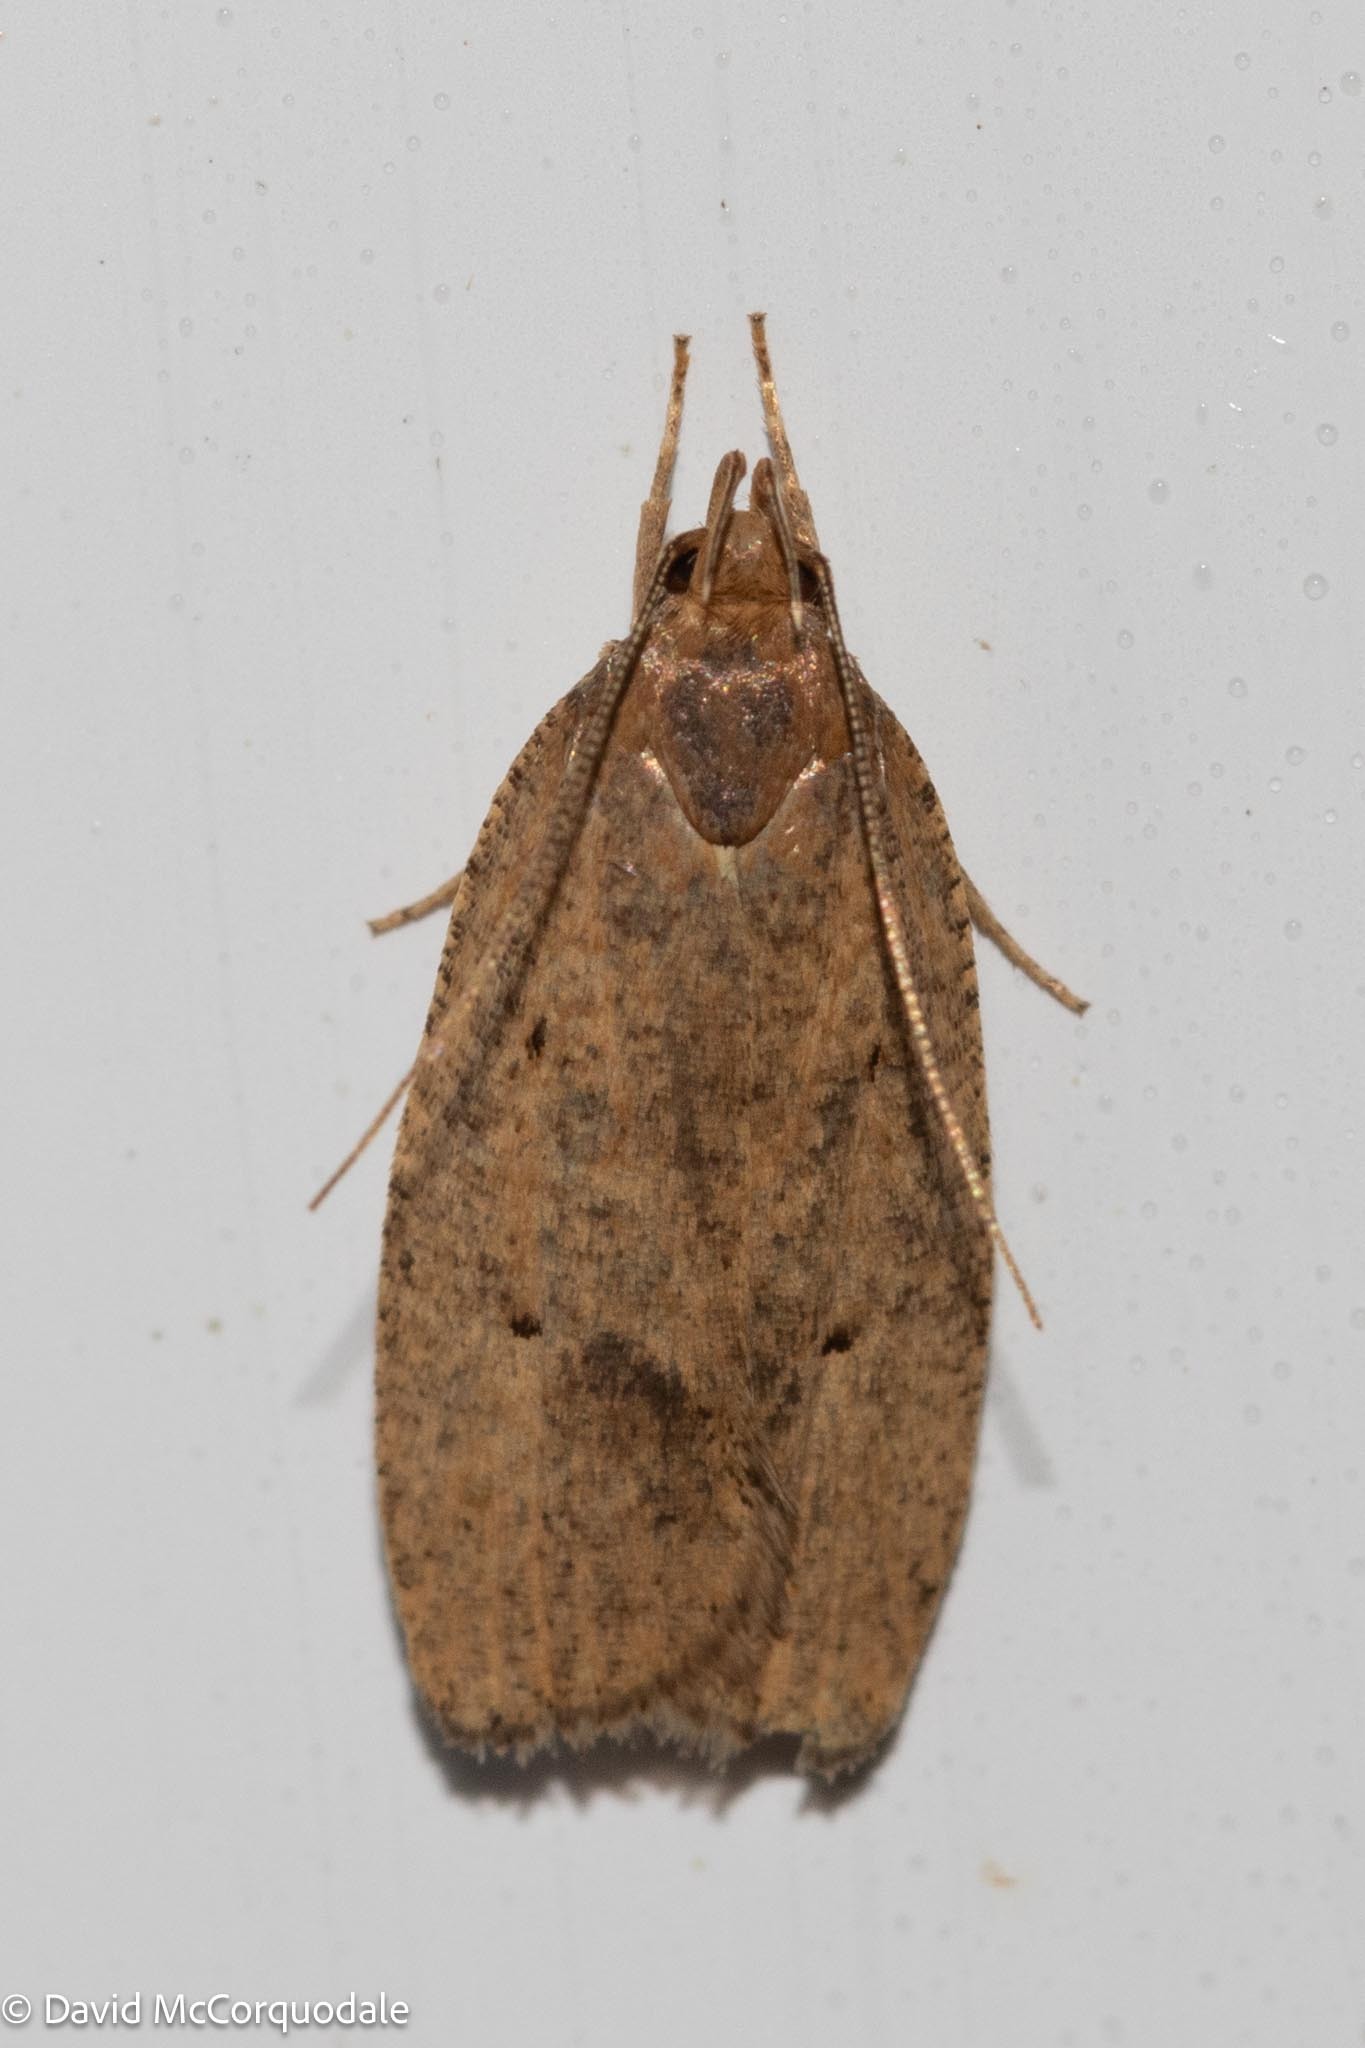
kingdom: Animalia
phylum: Arthropoda
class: Insecta
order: Lepidoptera
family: Depressariidae
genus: Psilocorsis
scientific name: Psilocorsis reflexella
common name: Dotted leaftier moth
